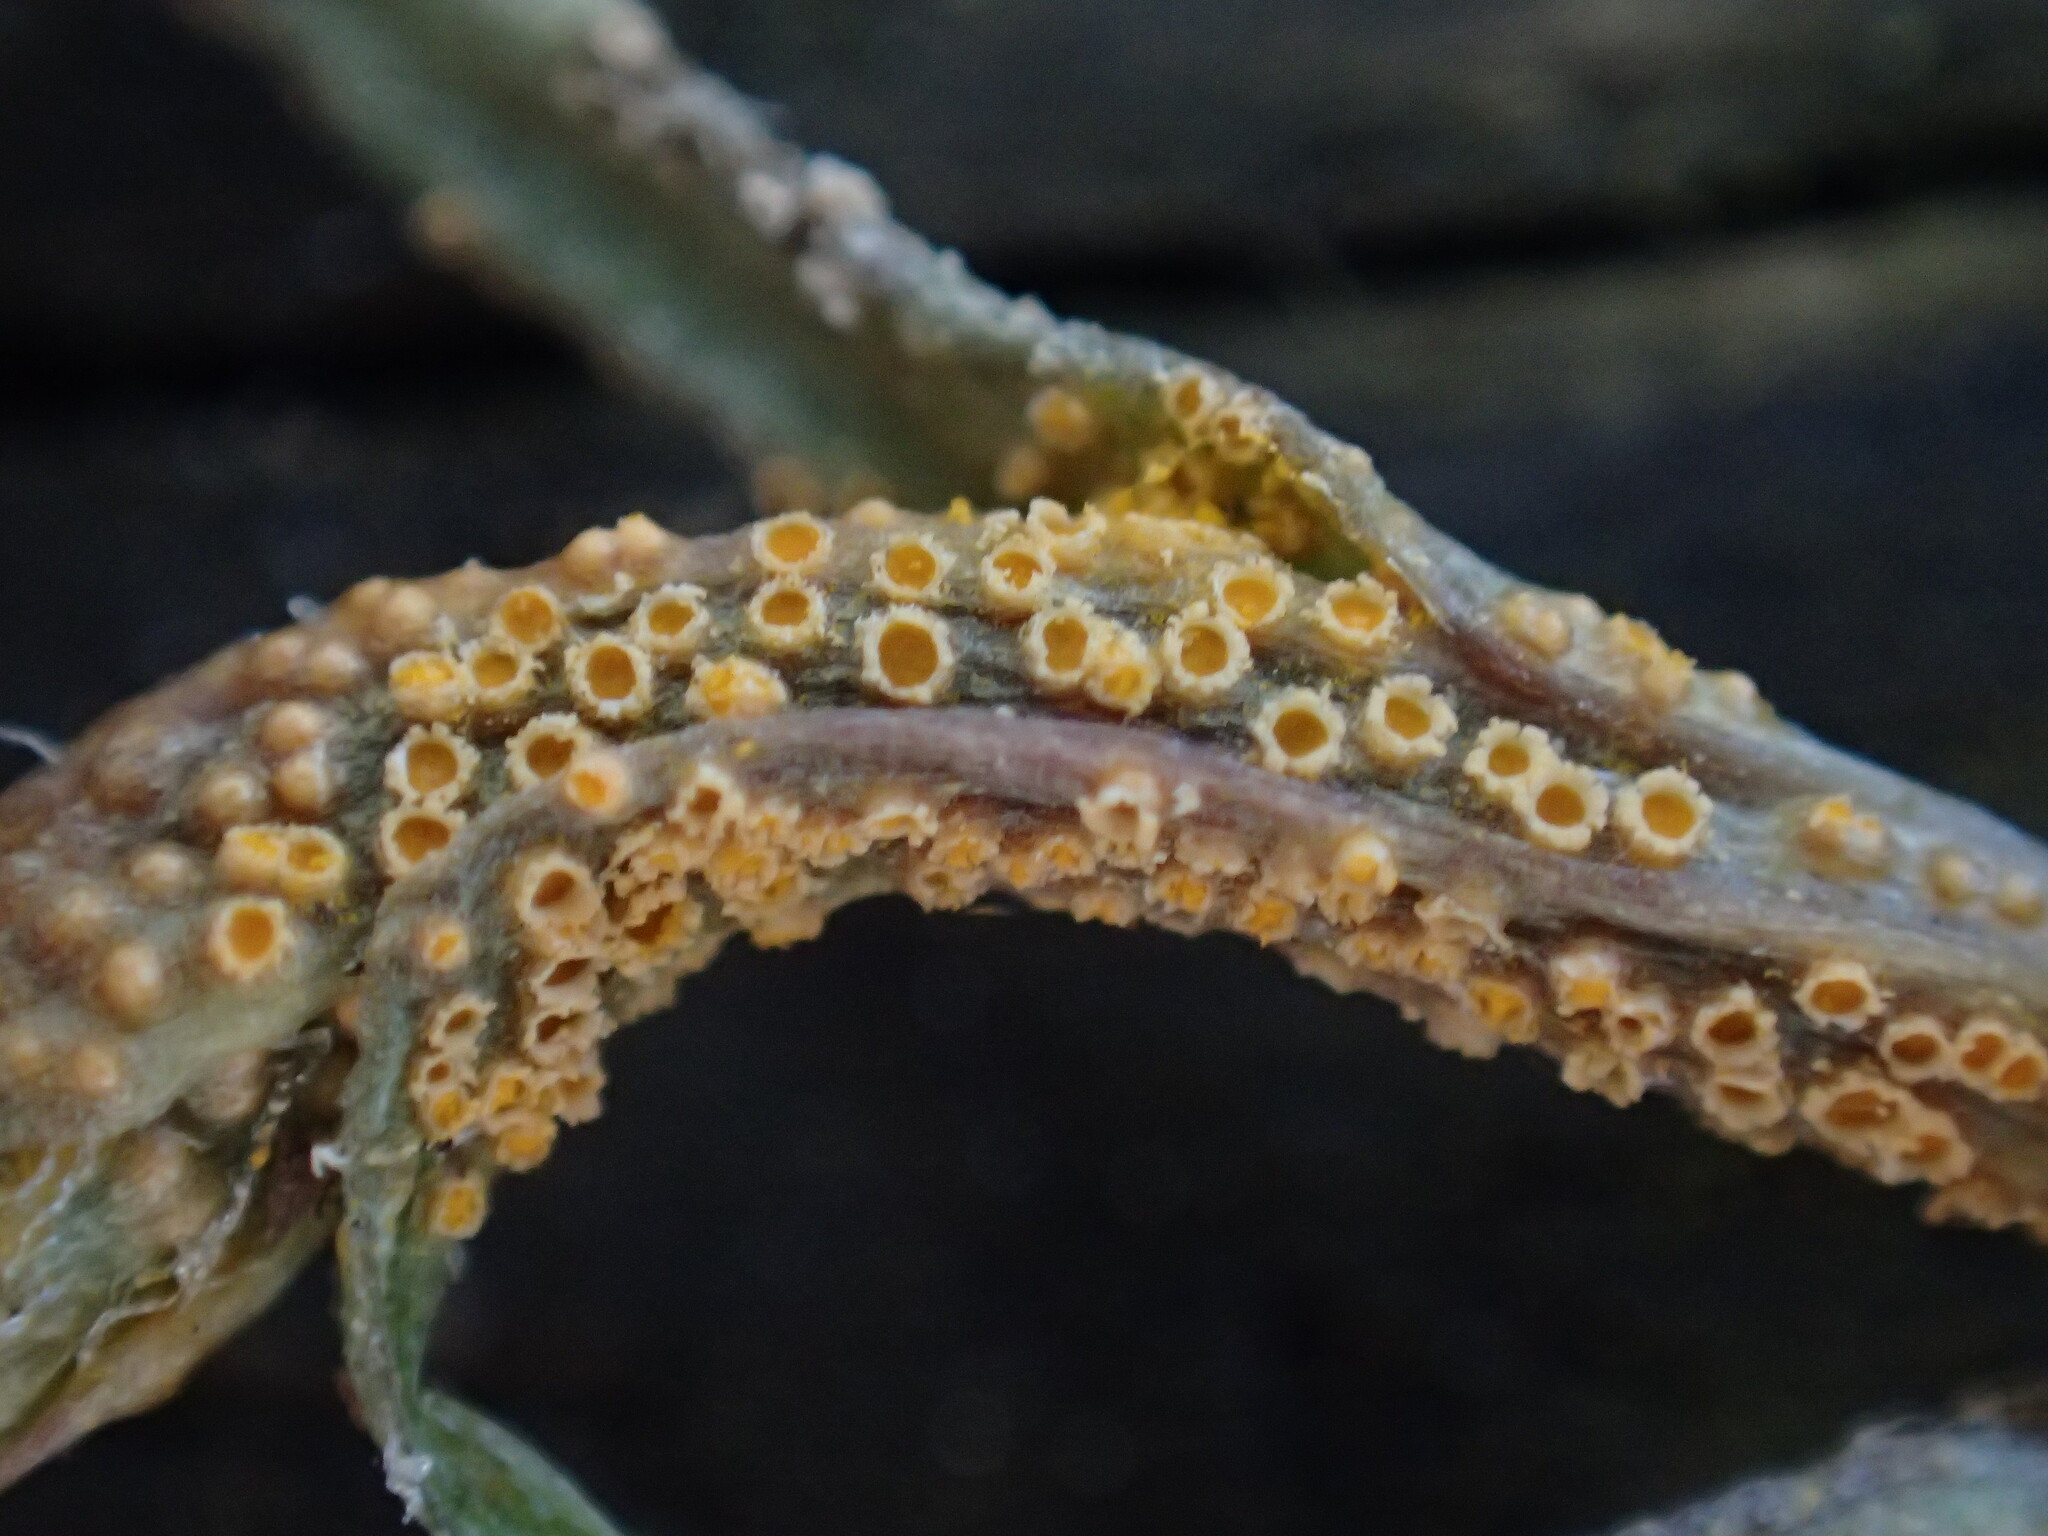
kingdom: Fungi
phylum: Basidiomycota
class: Pucciniomycetes
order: Pucciniales
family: Pucciniaceae
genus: Puccinia
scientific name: Puccinia lagenophorae
